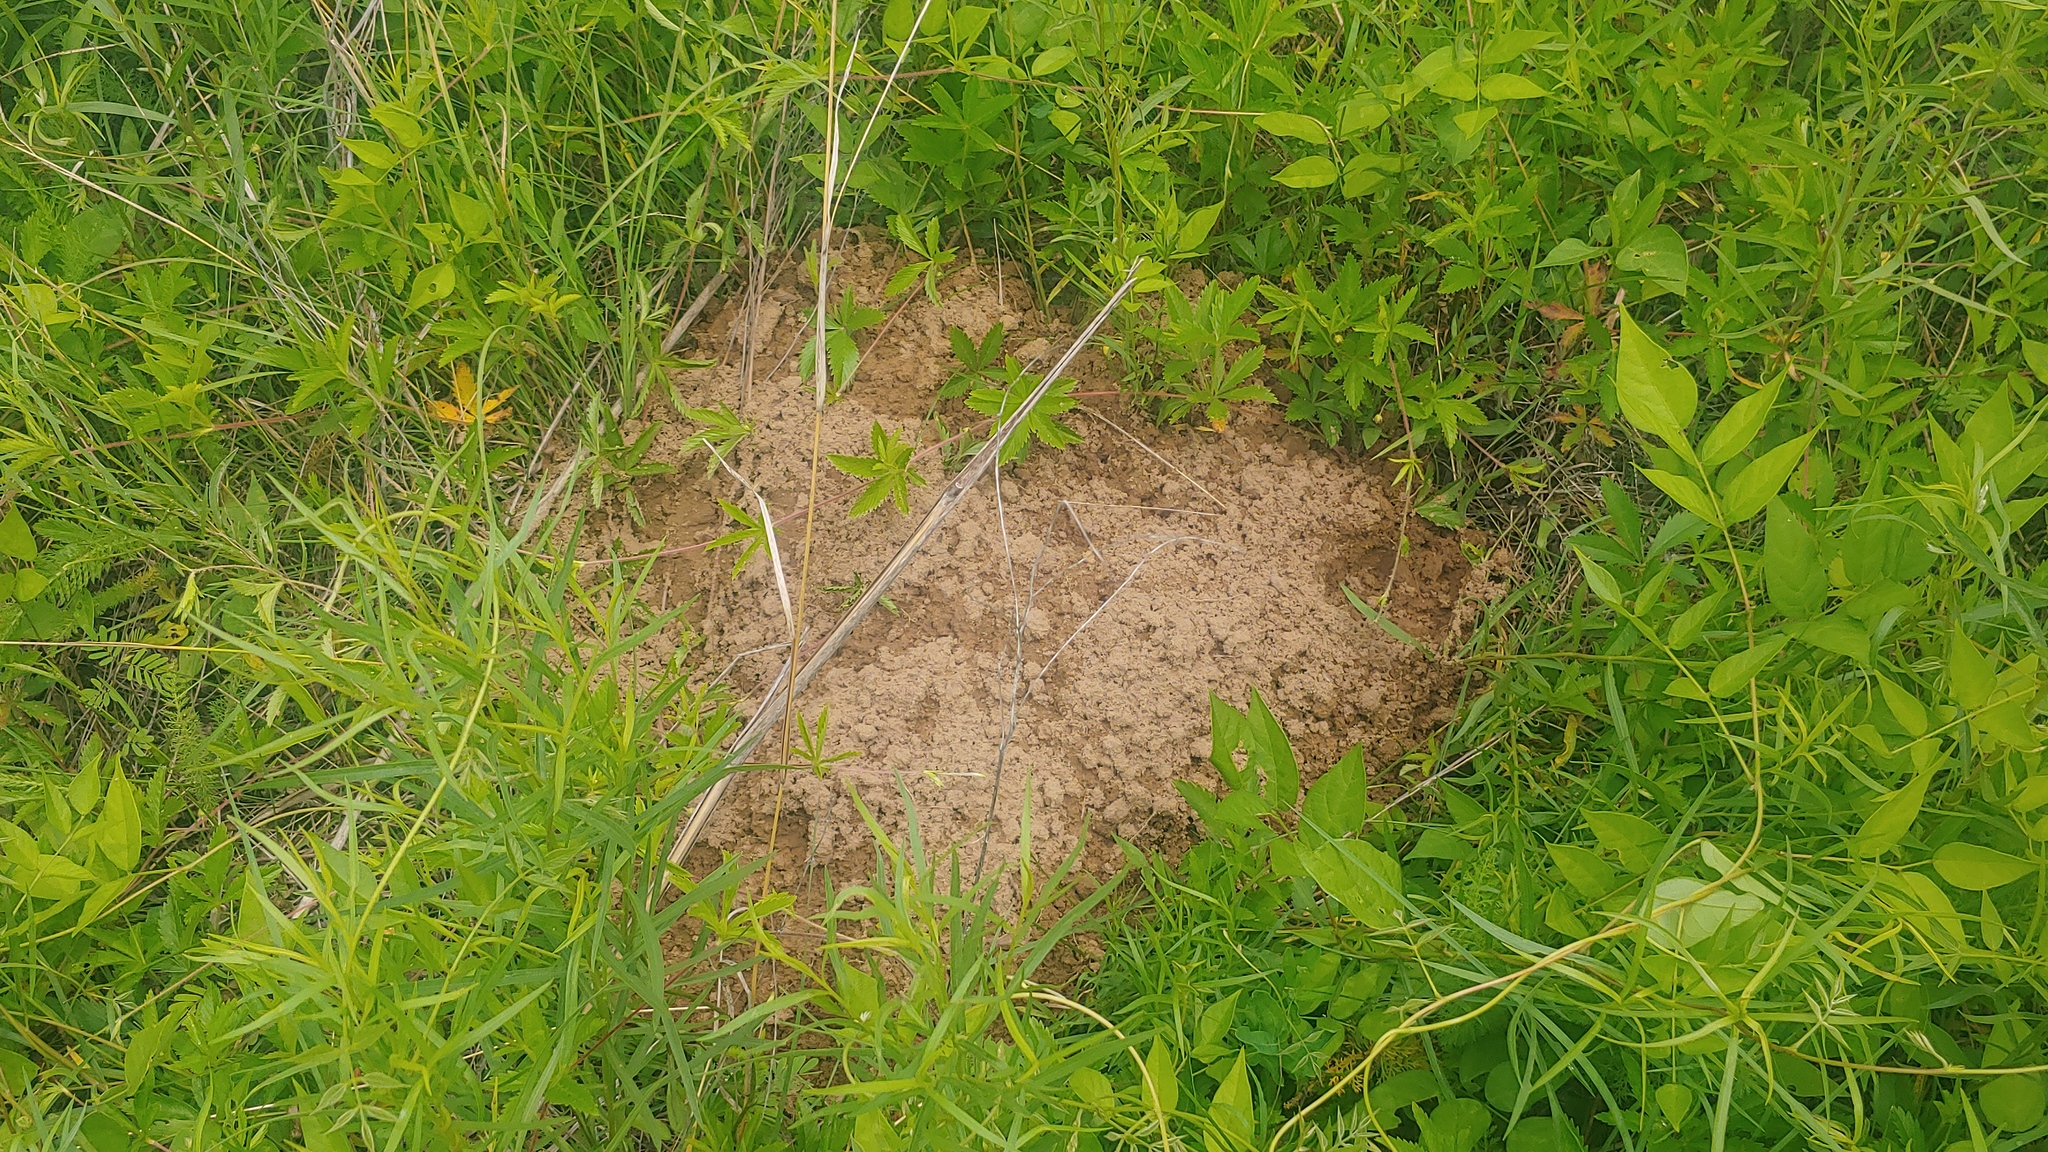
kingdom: Animalia
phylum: Chordata
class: Mammalia
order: Rodentia
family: Geomyidae
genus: Geomys
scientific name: Geomys bursarius
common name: Plains pocket gopher
